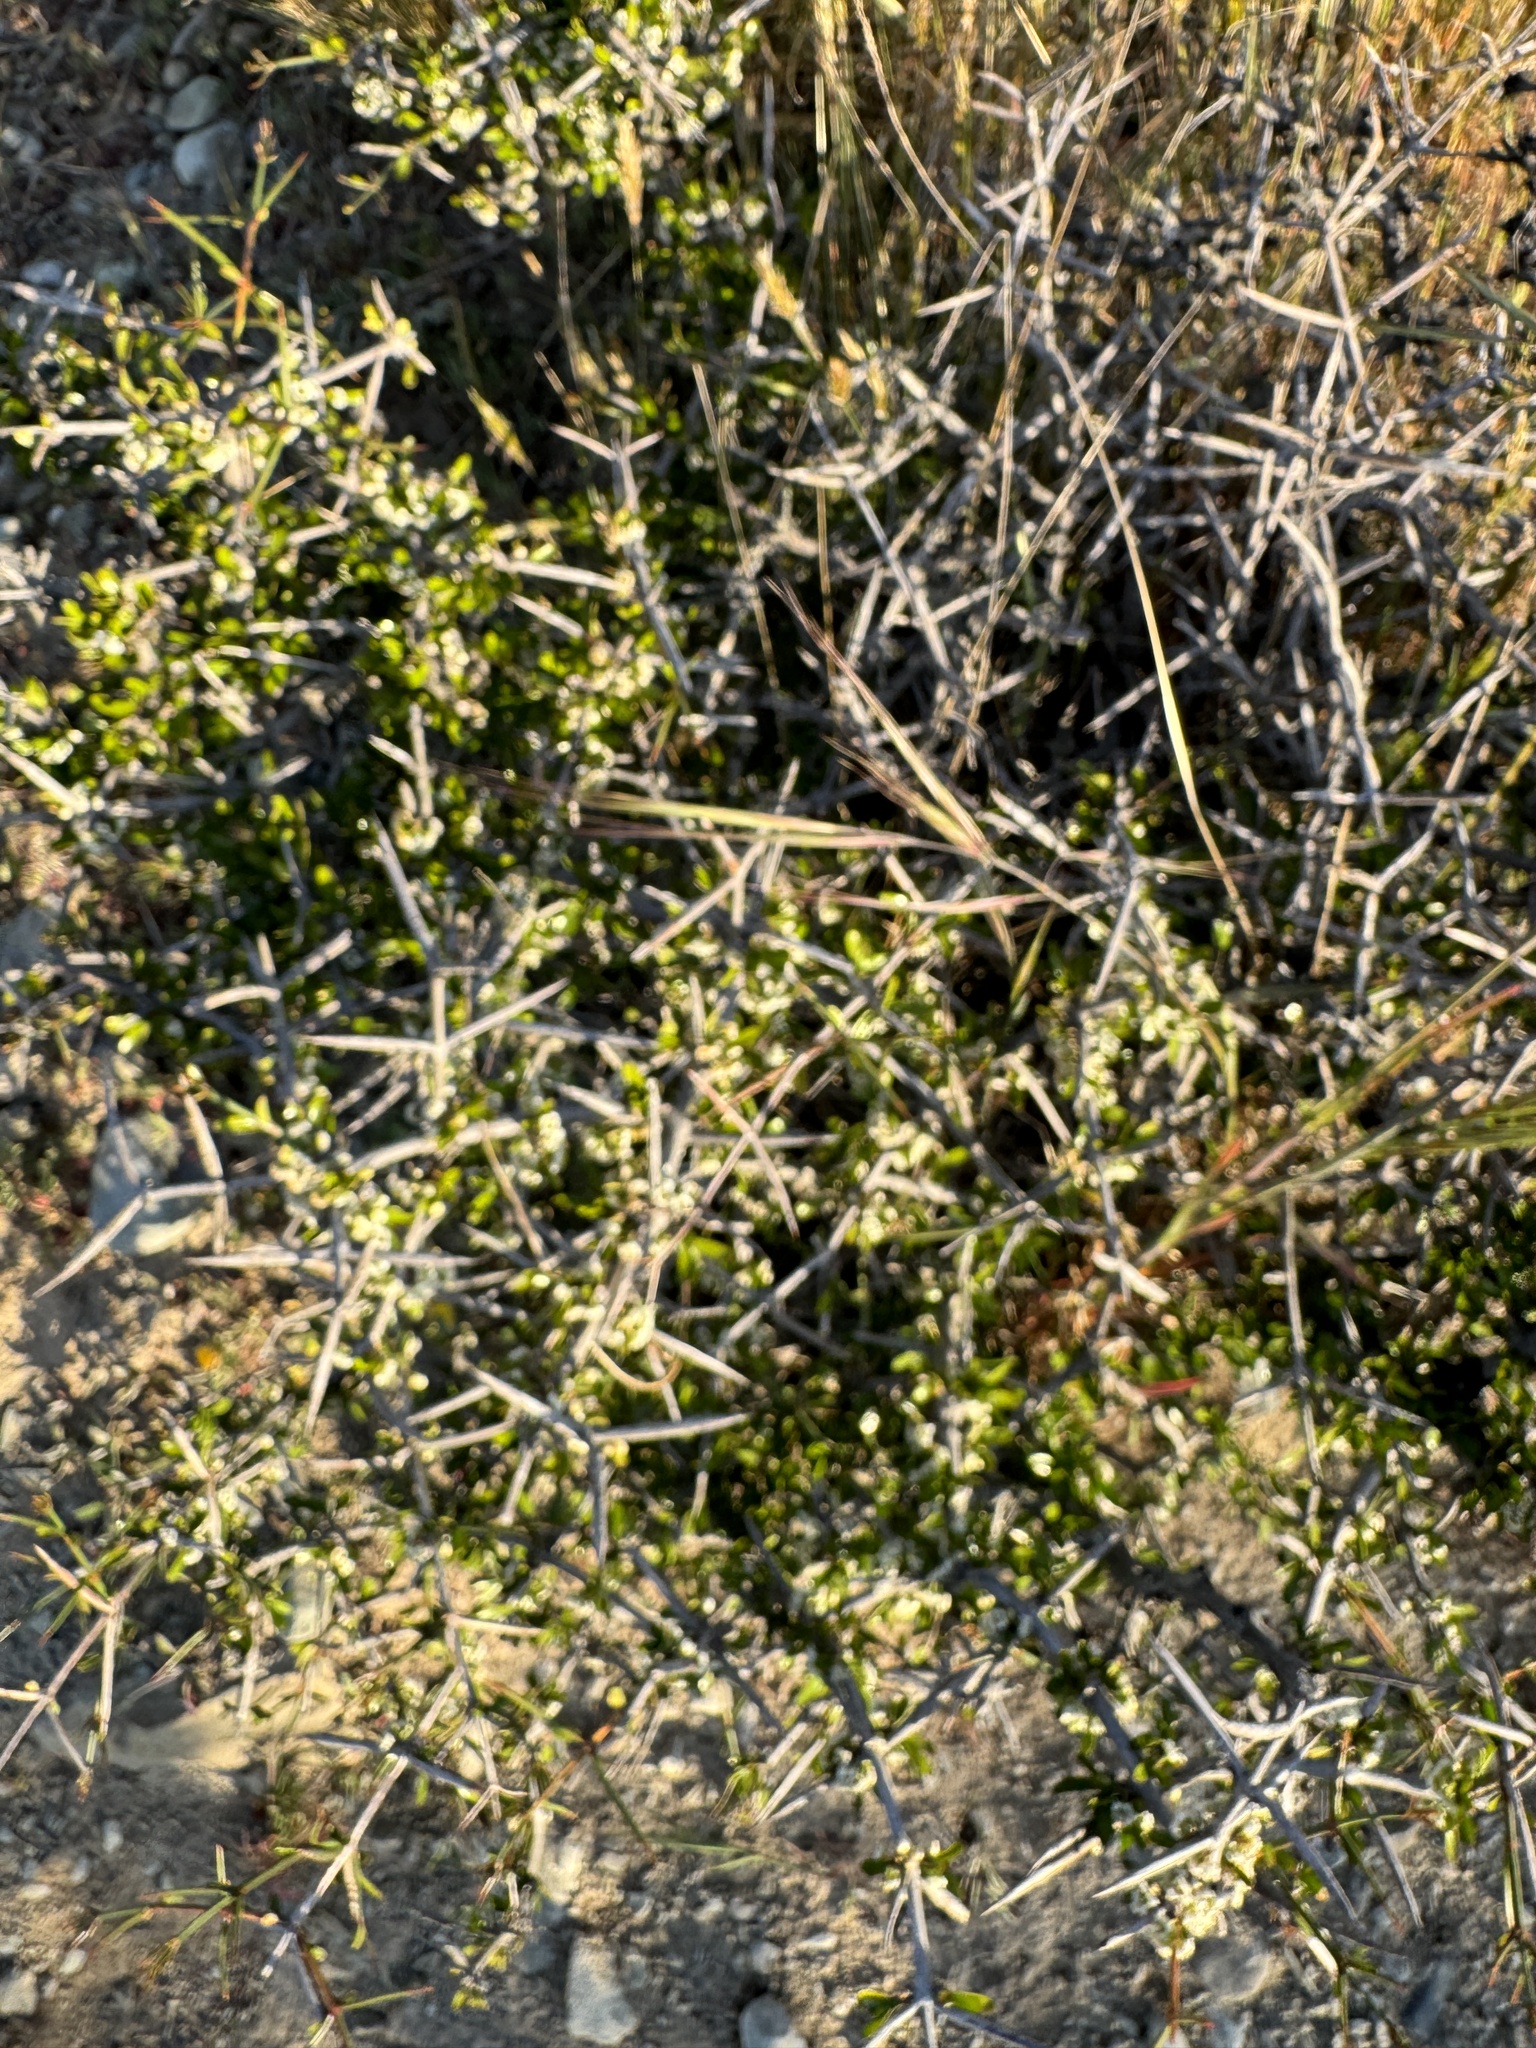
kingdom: Plantae
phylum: Tracheophyta
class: Magnoliopsida
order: Rosales
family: Rhamnaceae
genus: Discaria
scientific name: Discaria toumatou
